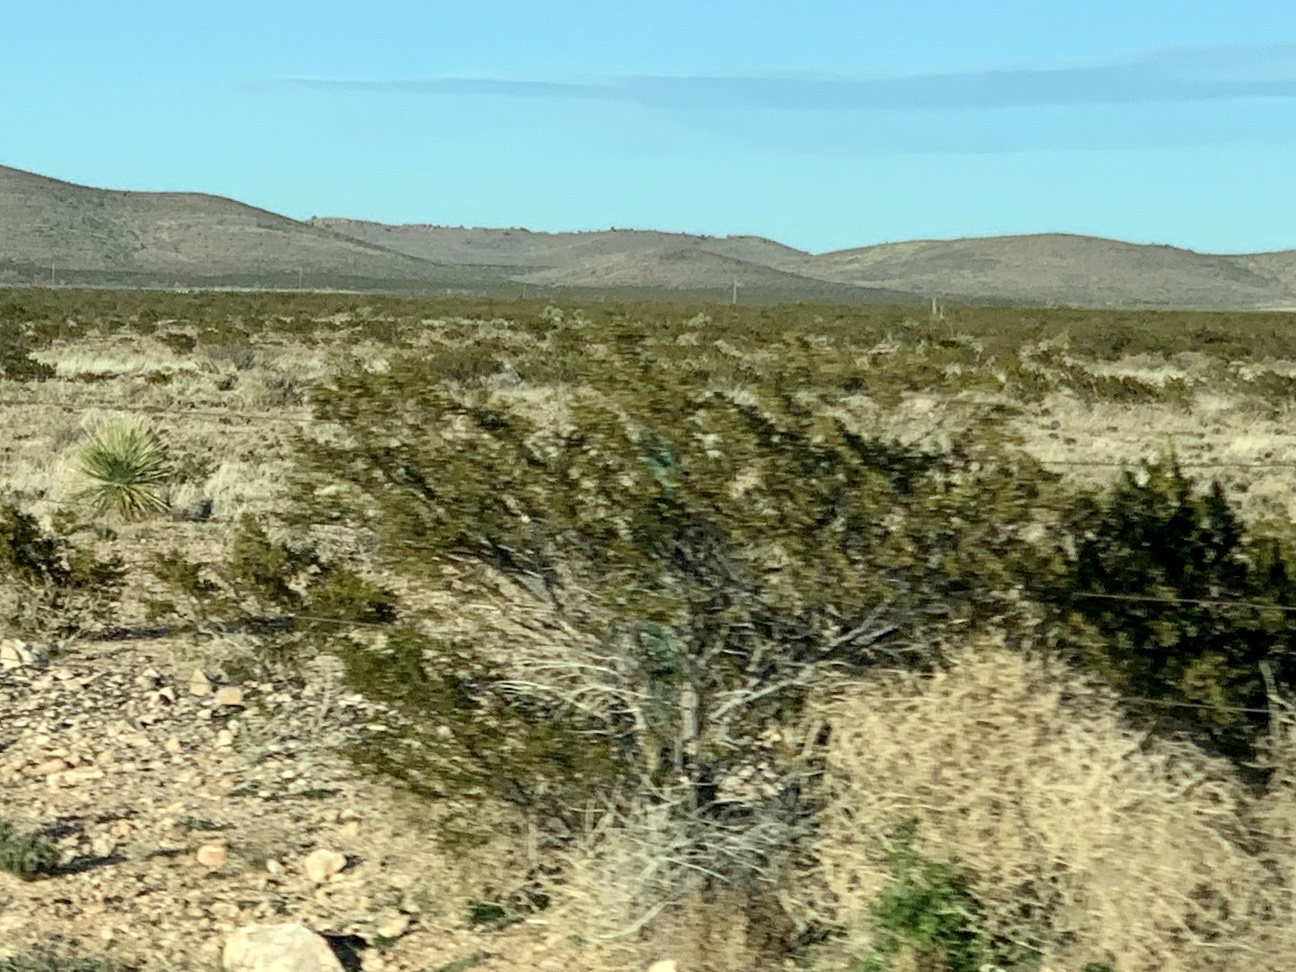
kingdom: Plantae
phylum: Tracheophyta
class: Magnoliopsida
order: Zygophyllales
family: Zygophyllaceae
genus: Larrea
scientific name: Larrea tridentata
